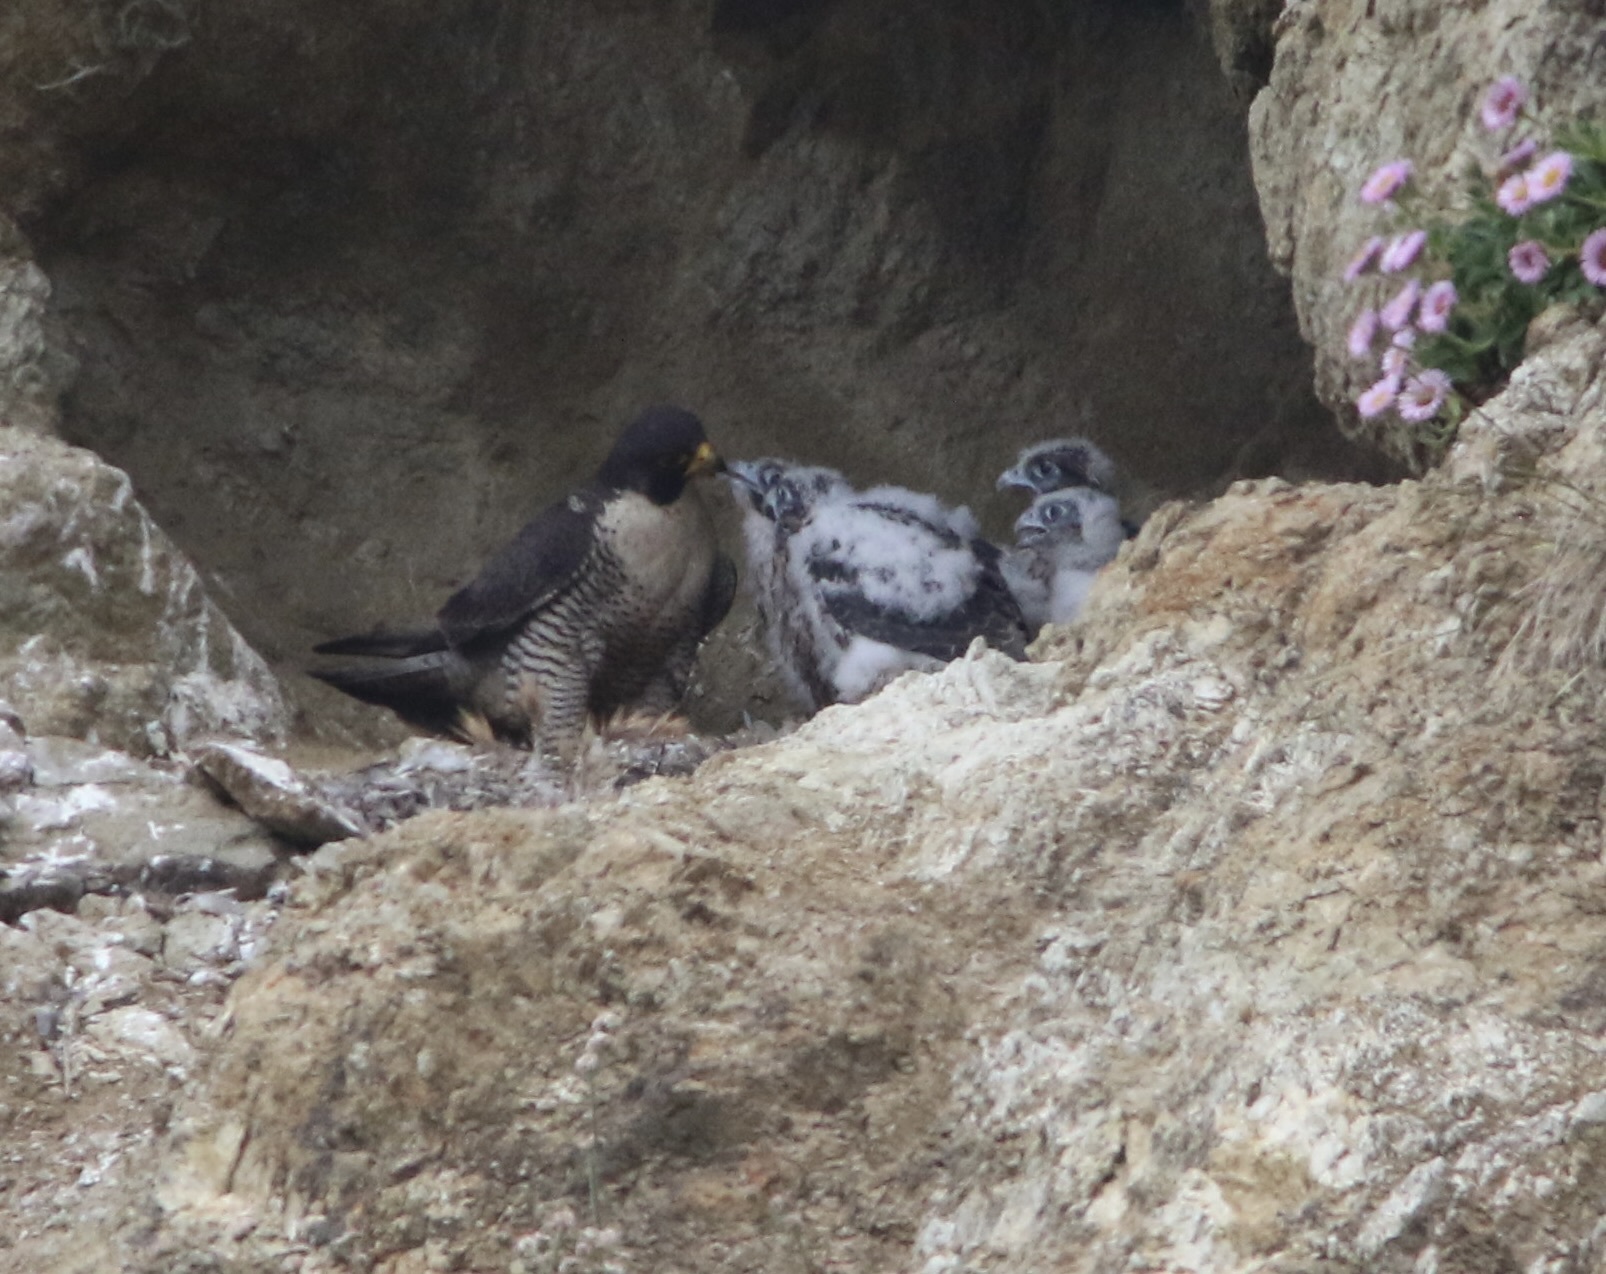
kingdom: Animalia
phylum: Chordata
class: Aves
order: Falconiformes
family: Falconidae
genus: Falco
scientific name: Falco peregrinus
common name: Peregrine falcon
